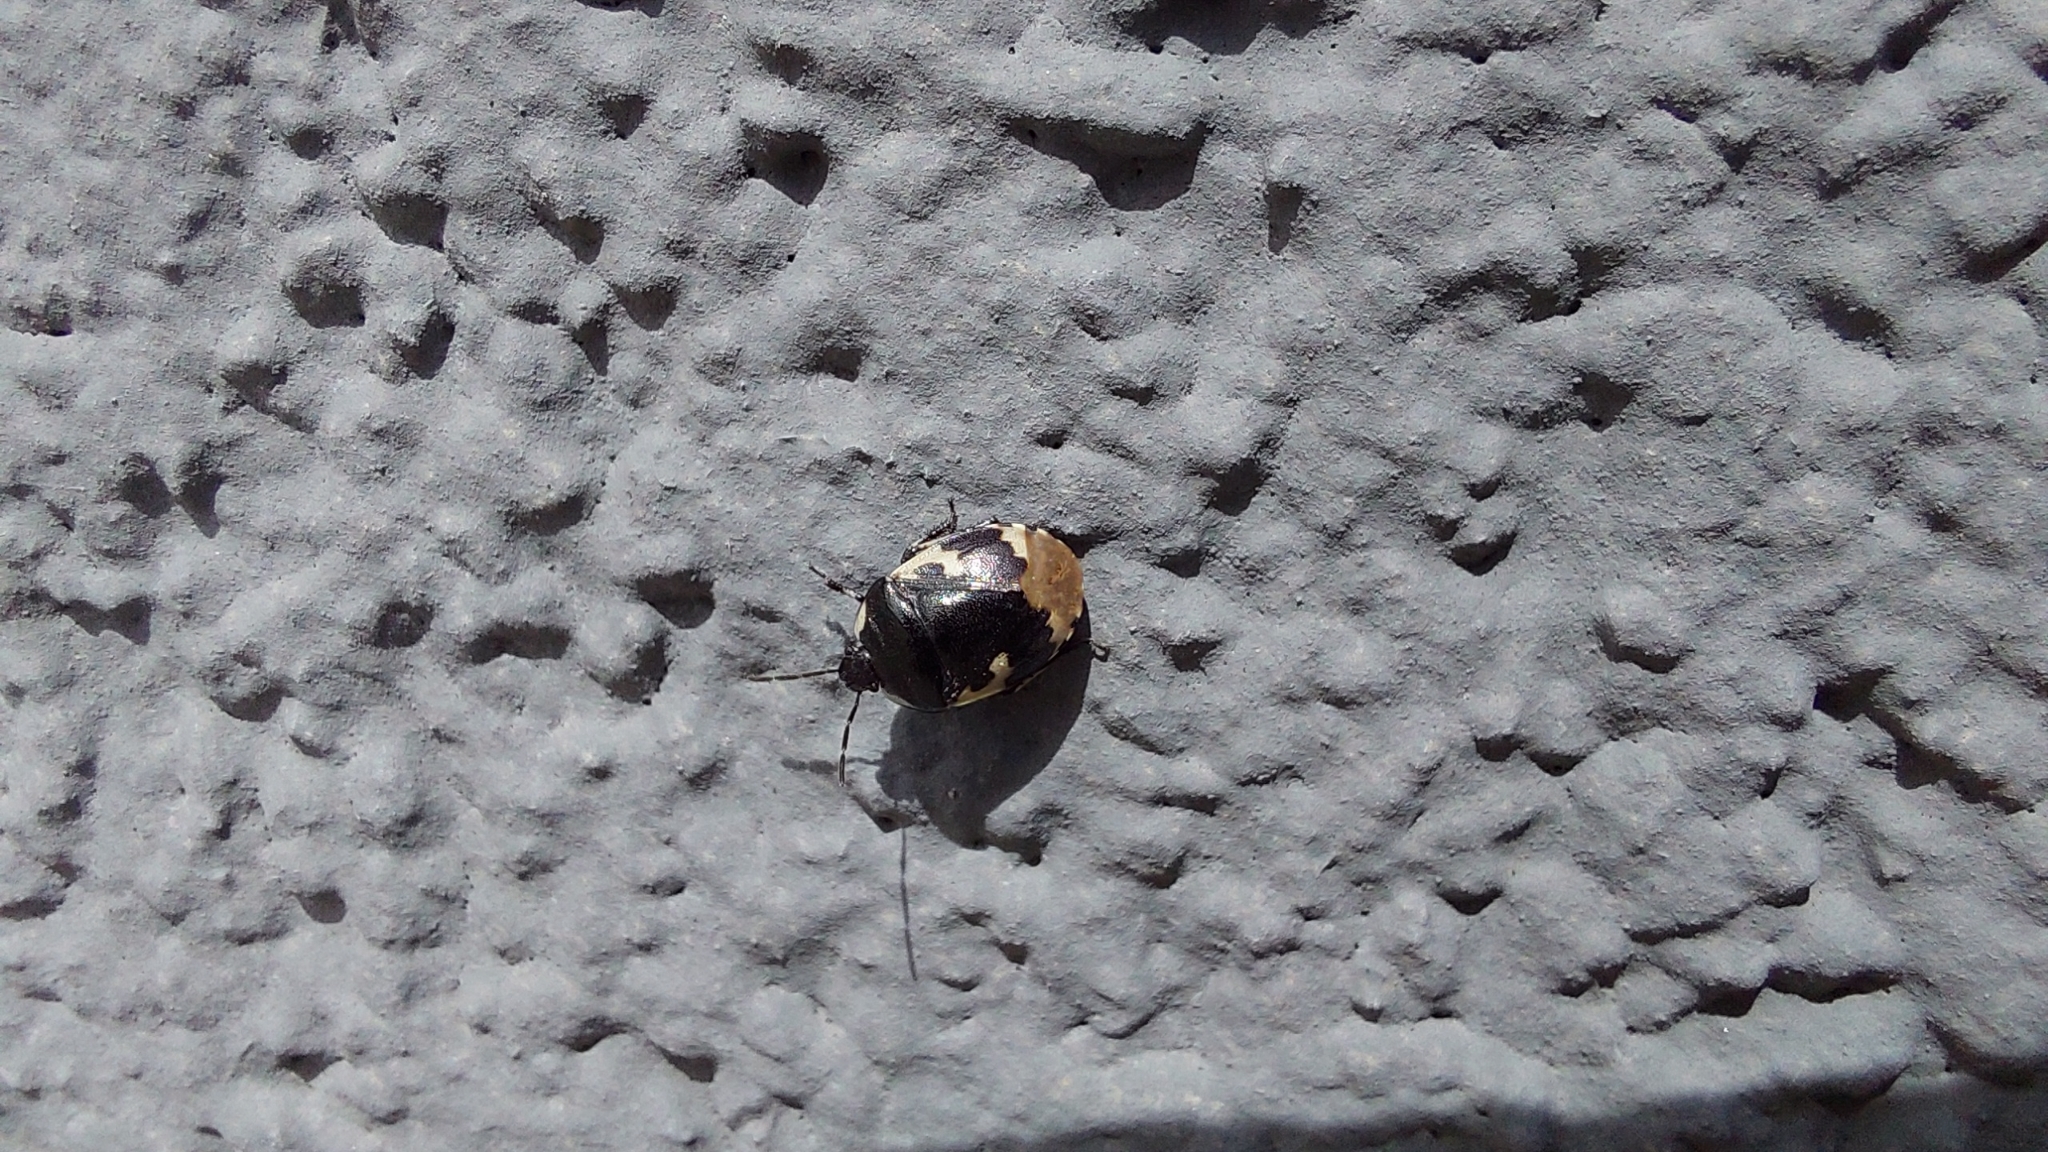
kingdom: Animalia
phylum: Arthropoda
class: Insecta
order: Hemiptera
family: Cydnidae
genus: Tritomegas
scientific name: Tritomegas bicolor
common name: Pied shieldbug
